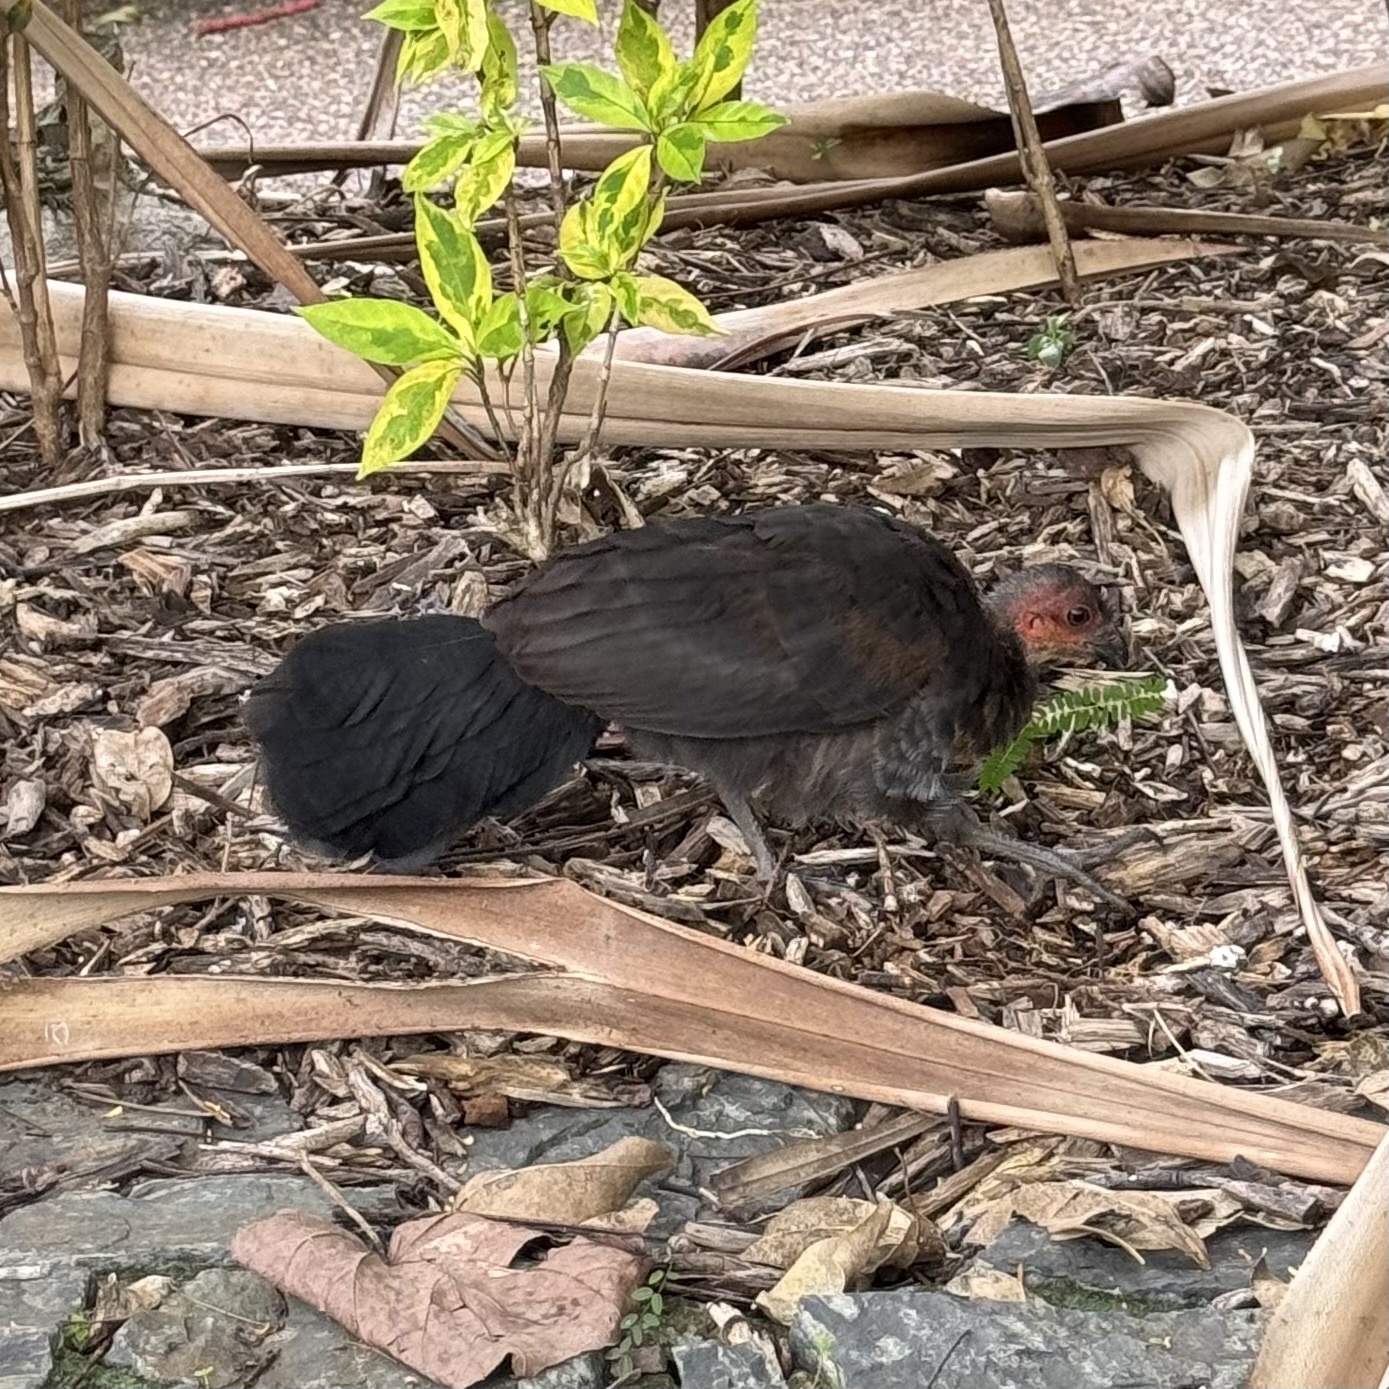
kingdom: Animalia
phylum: Chordata
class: Aves
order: Galliformes
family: Megapodiidae
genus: Alectura
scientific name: Alectura lathami
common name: Australian brushturkey
